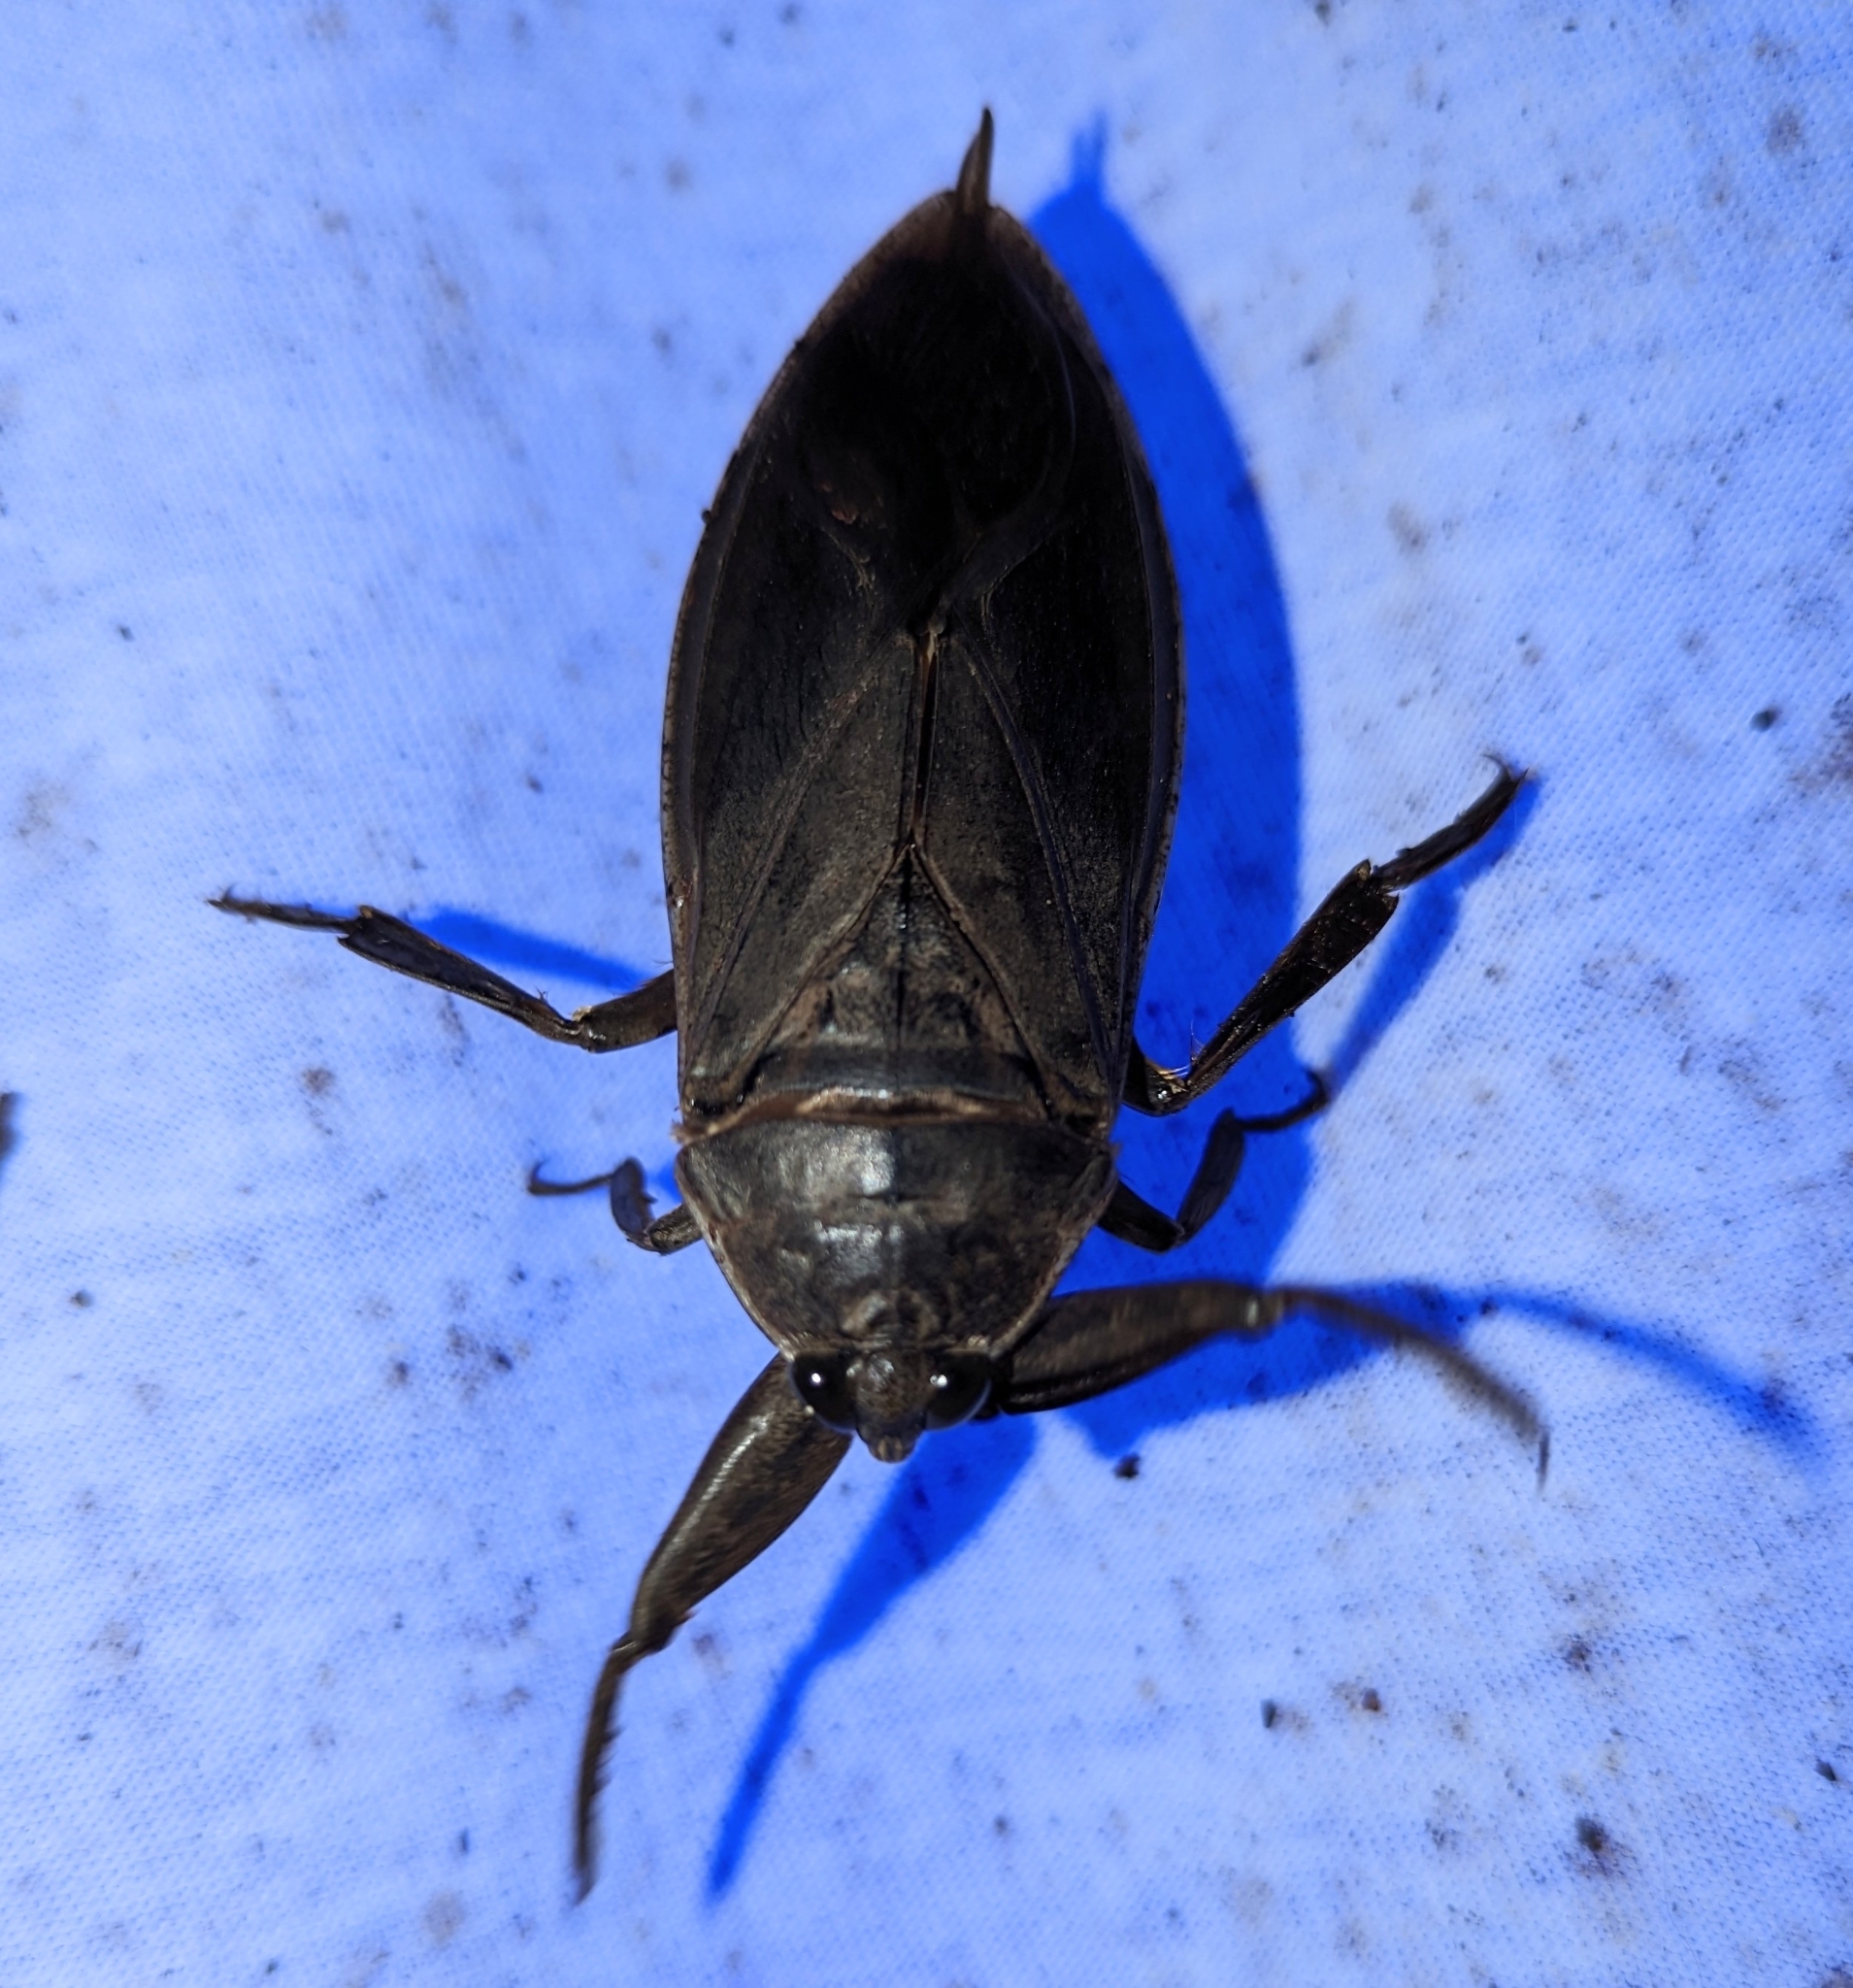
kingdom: Animalia
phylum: Arthropoda
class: Insecta
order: Hemiptera
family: Belostomatidae
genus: Lethocerus
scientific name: Lethocerus americanus
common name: Giant water bug
